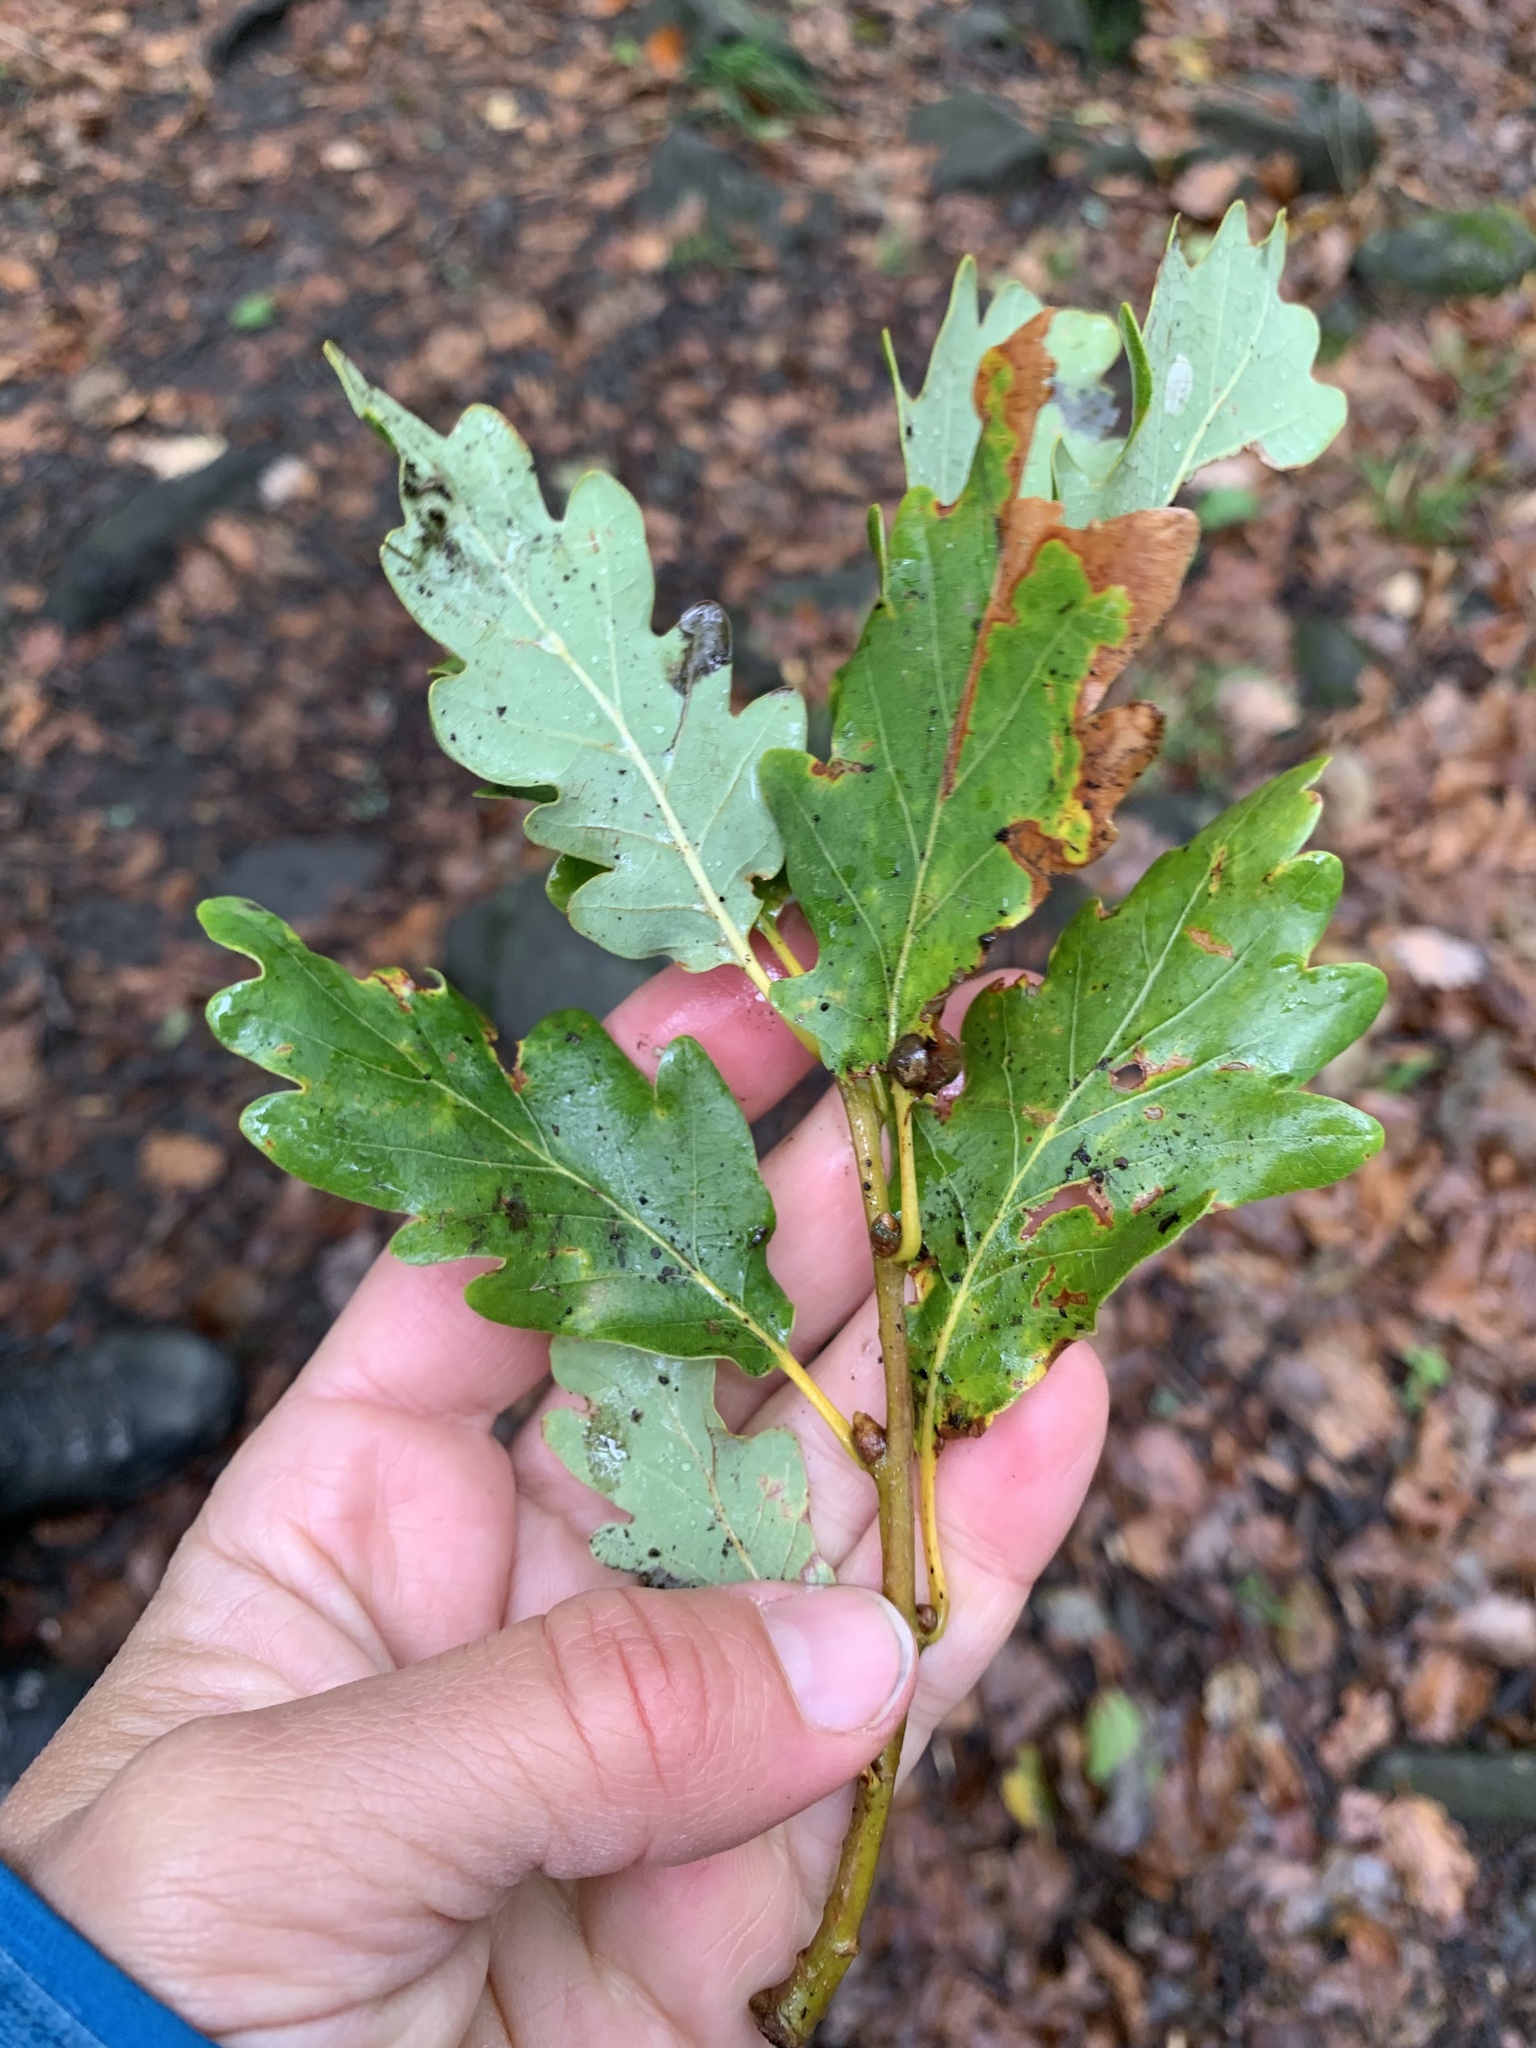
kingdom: Plantae
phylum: Tracheophyta
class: Magnoliopsida
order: Fagales
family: Fagaceae
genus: Quercus
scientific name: Quercus petraea
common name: Sessile oak
